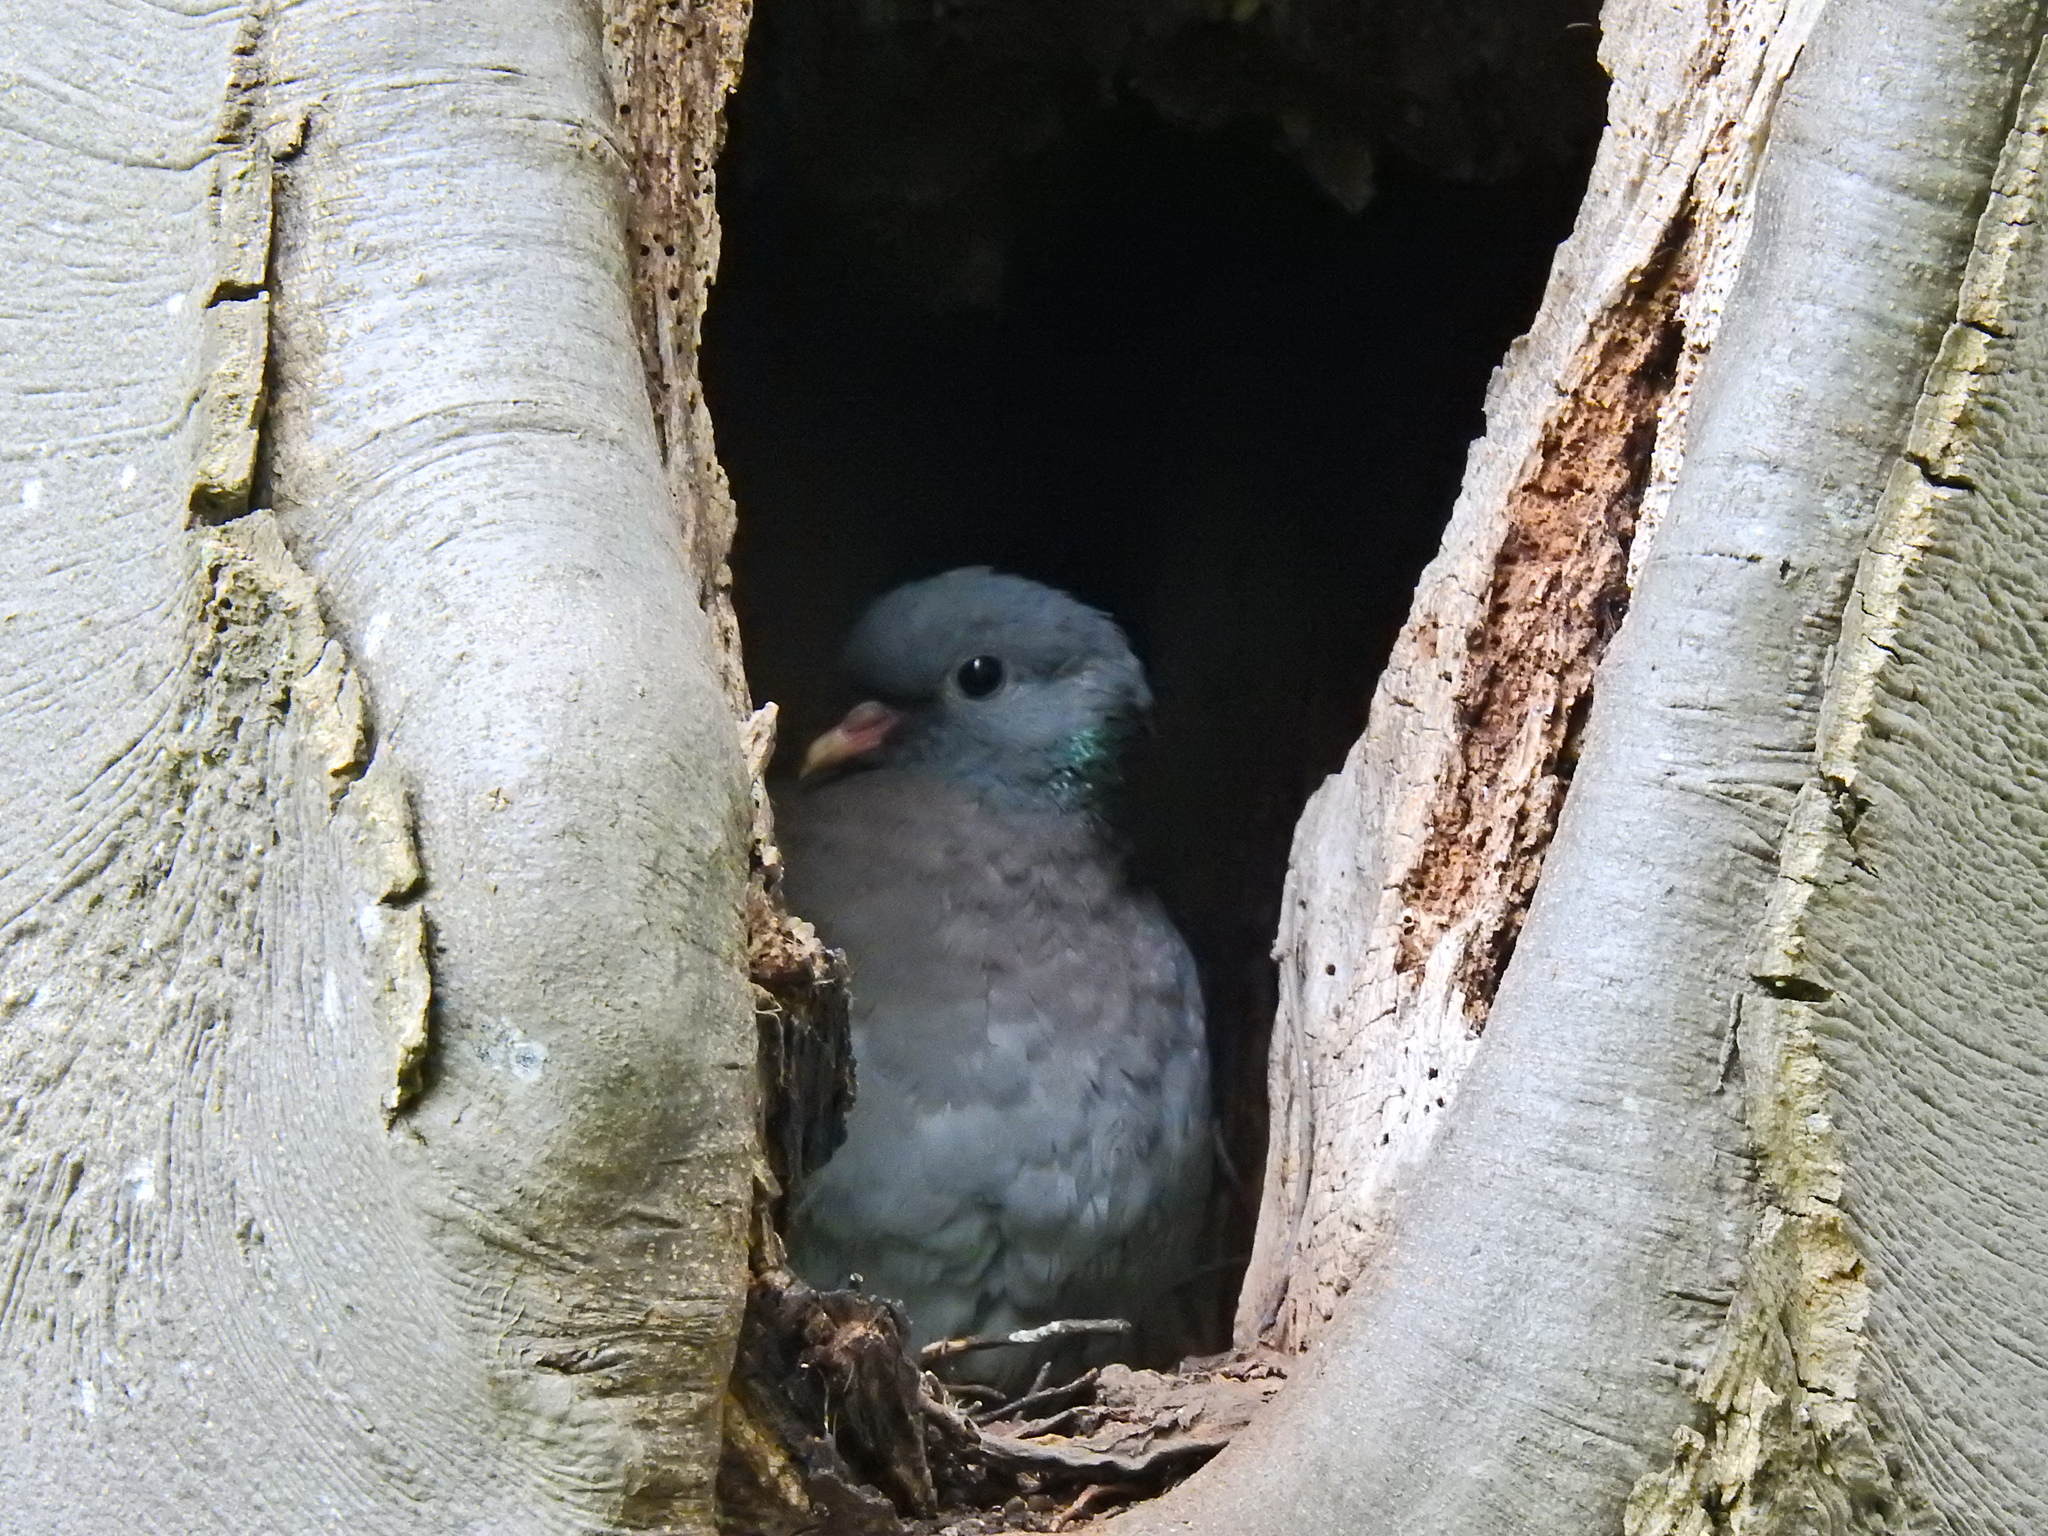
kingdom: Animalia
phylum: Chordata
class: Aves
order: Columbiformes
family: Columbidae
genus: Columba
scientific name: Columba oenas
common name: Stock dove
